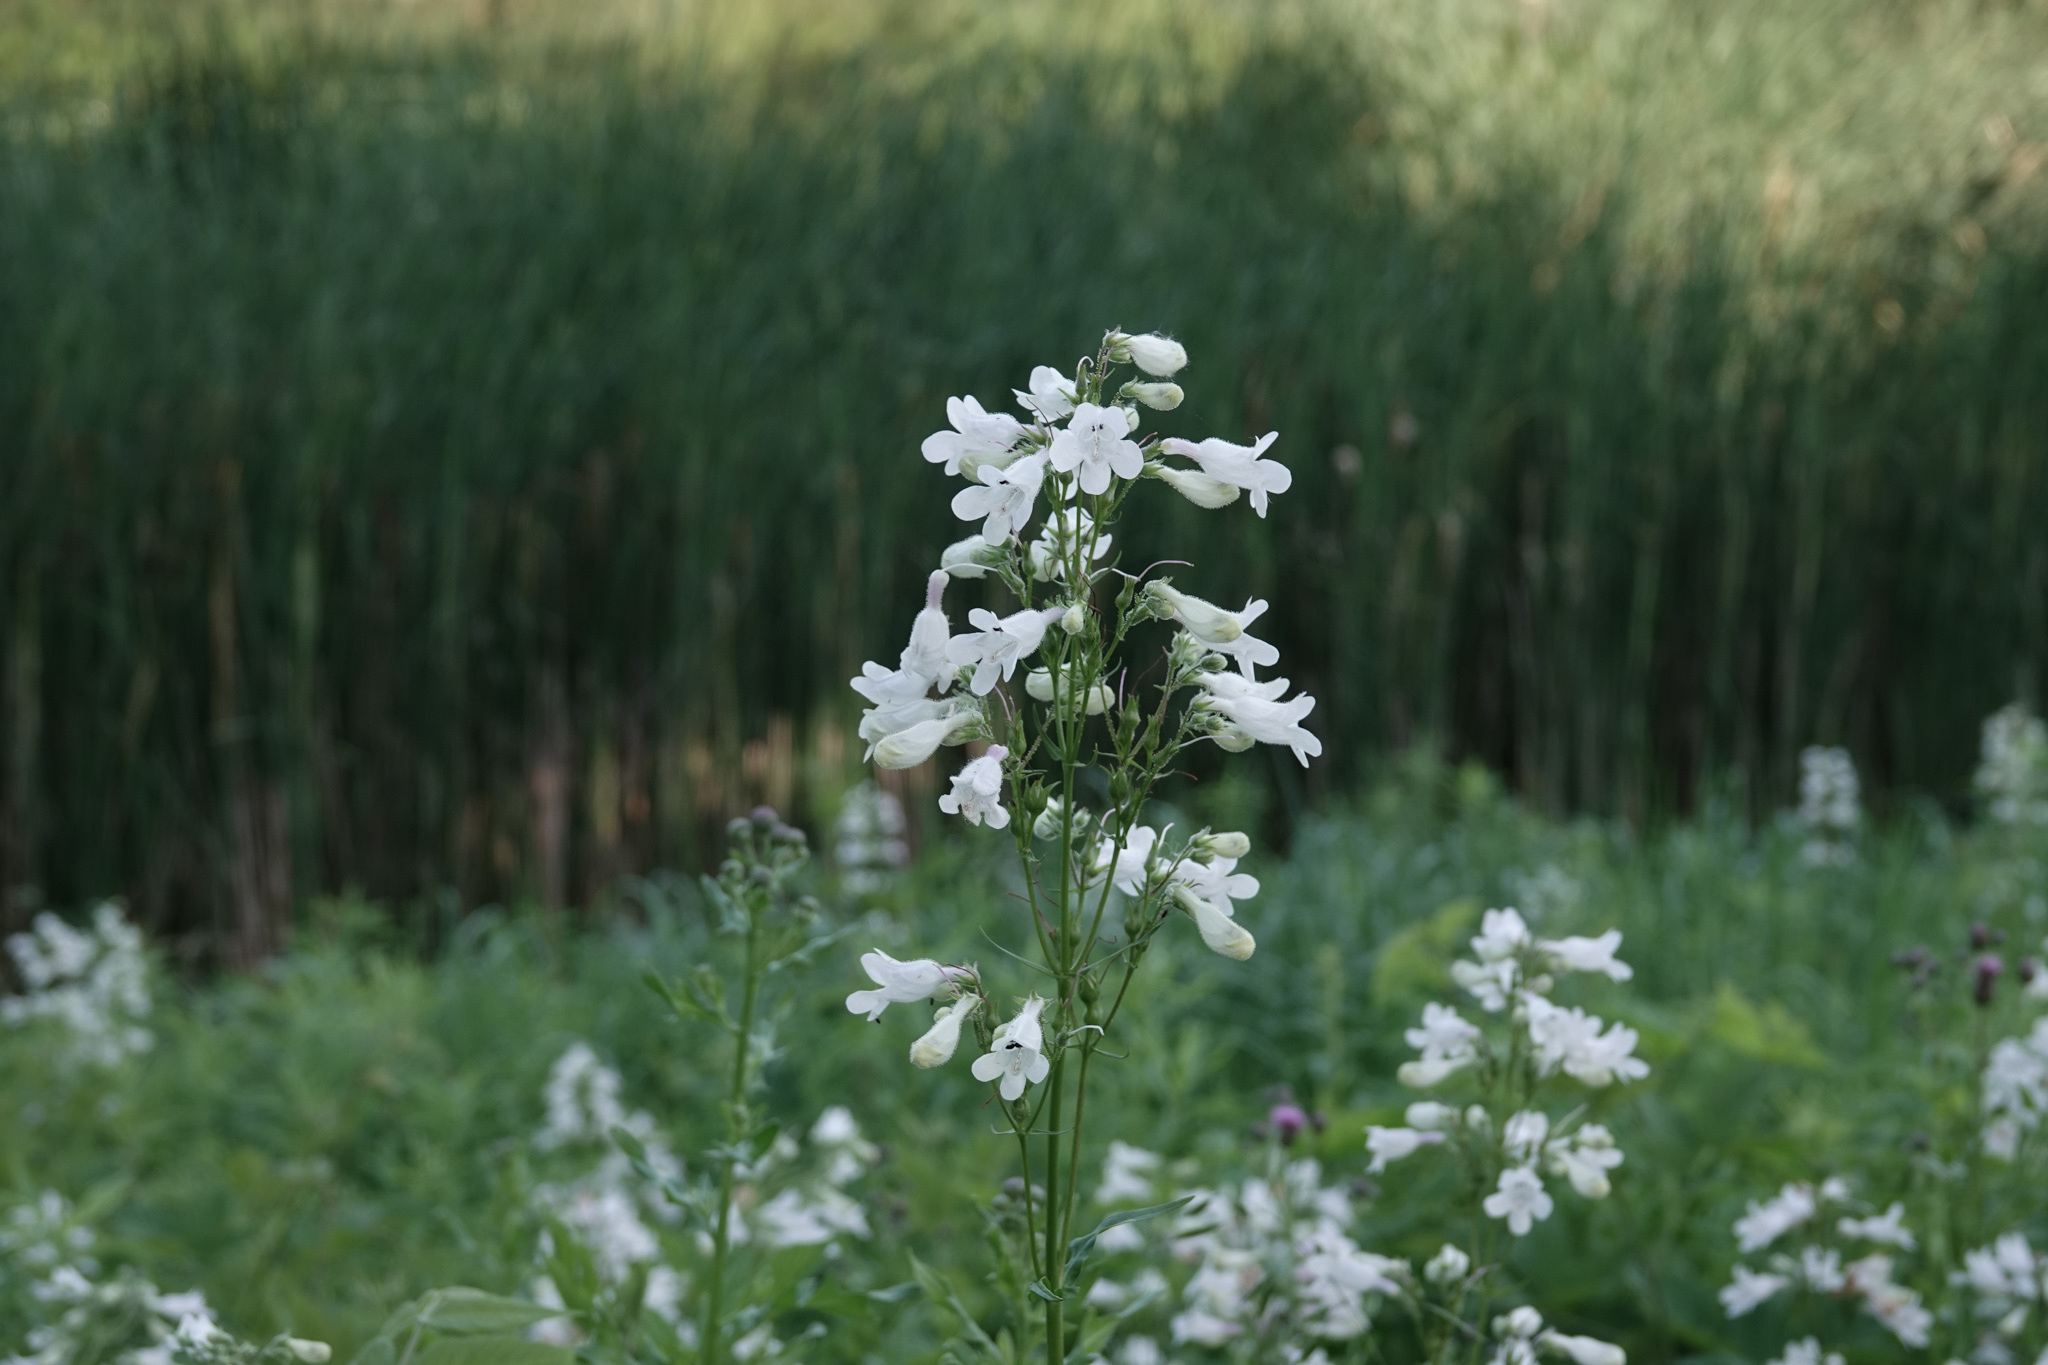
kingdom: Plantae
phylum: Tracheophyta
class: Magnoliopsida
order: Lamiales
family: Plantaginaceae
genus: Penstemon
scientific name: Penstemon digitalis
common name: Foxglove beardtongue
